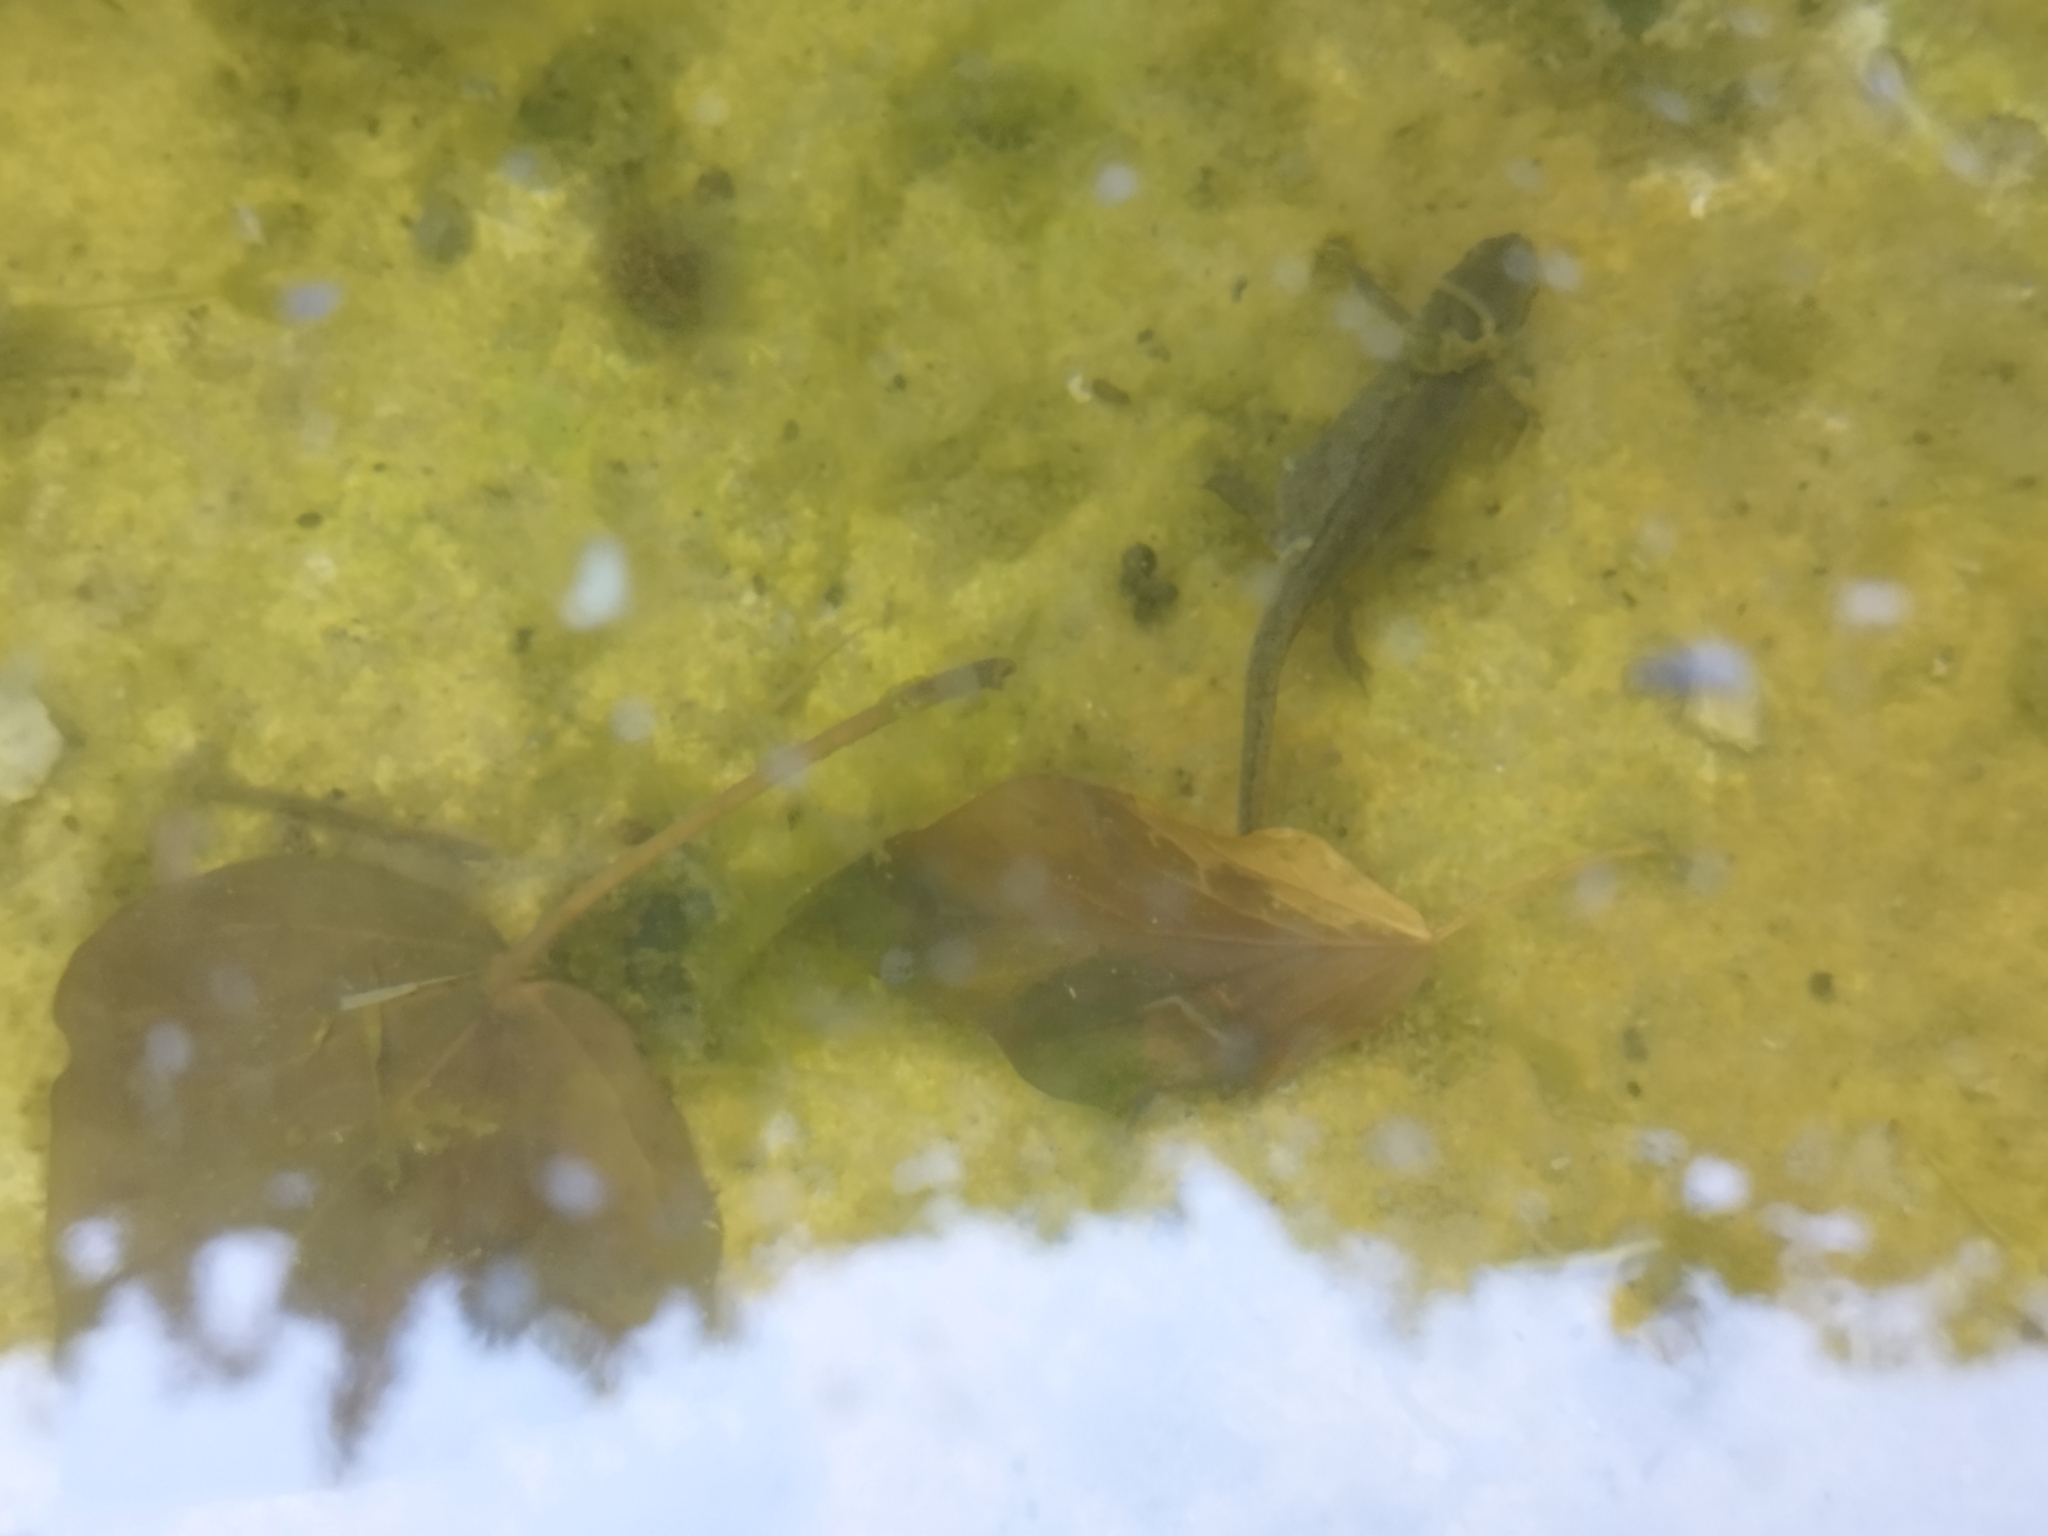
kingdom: Animalia
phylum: Chordata
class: Amphibia
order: Caudata
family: Salamandridae
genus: Lissotriton
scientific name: Lissotriton vulgaris
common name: Smooth newt
